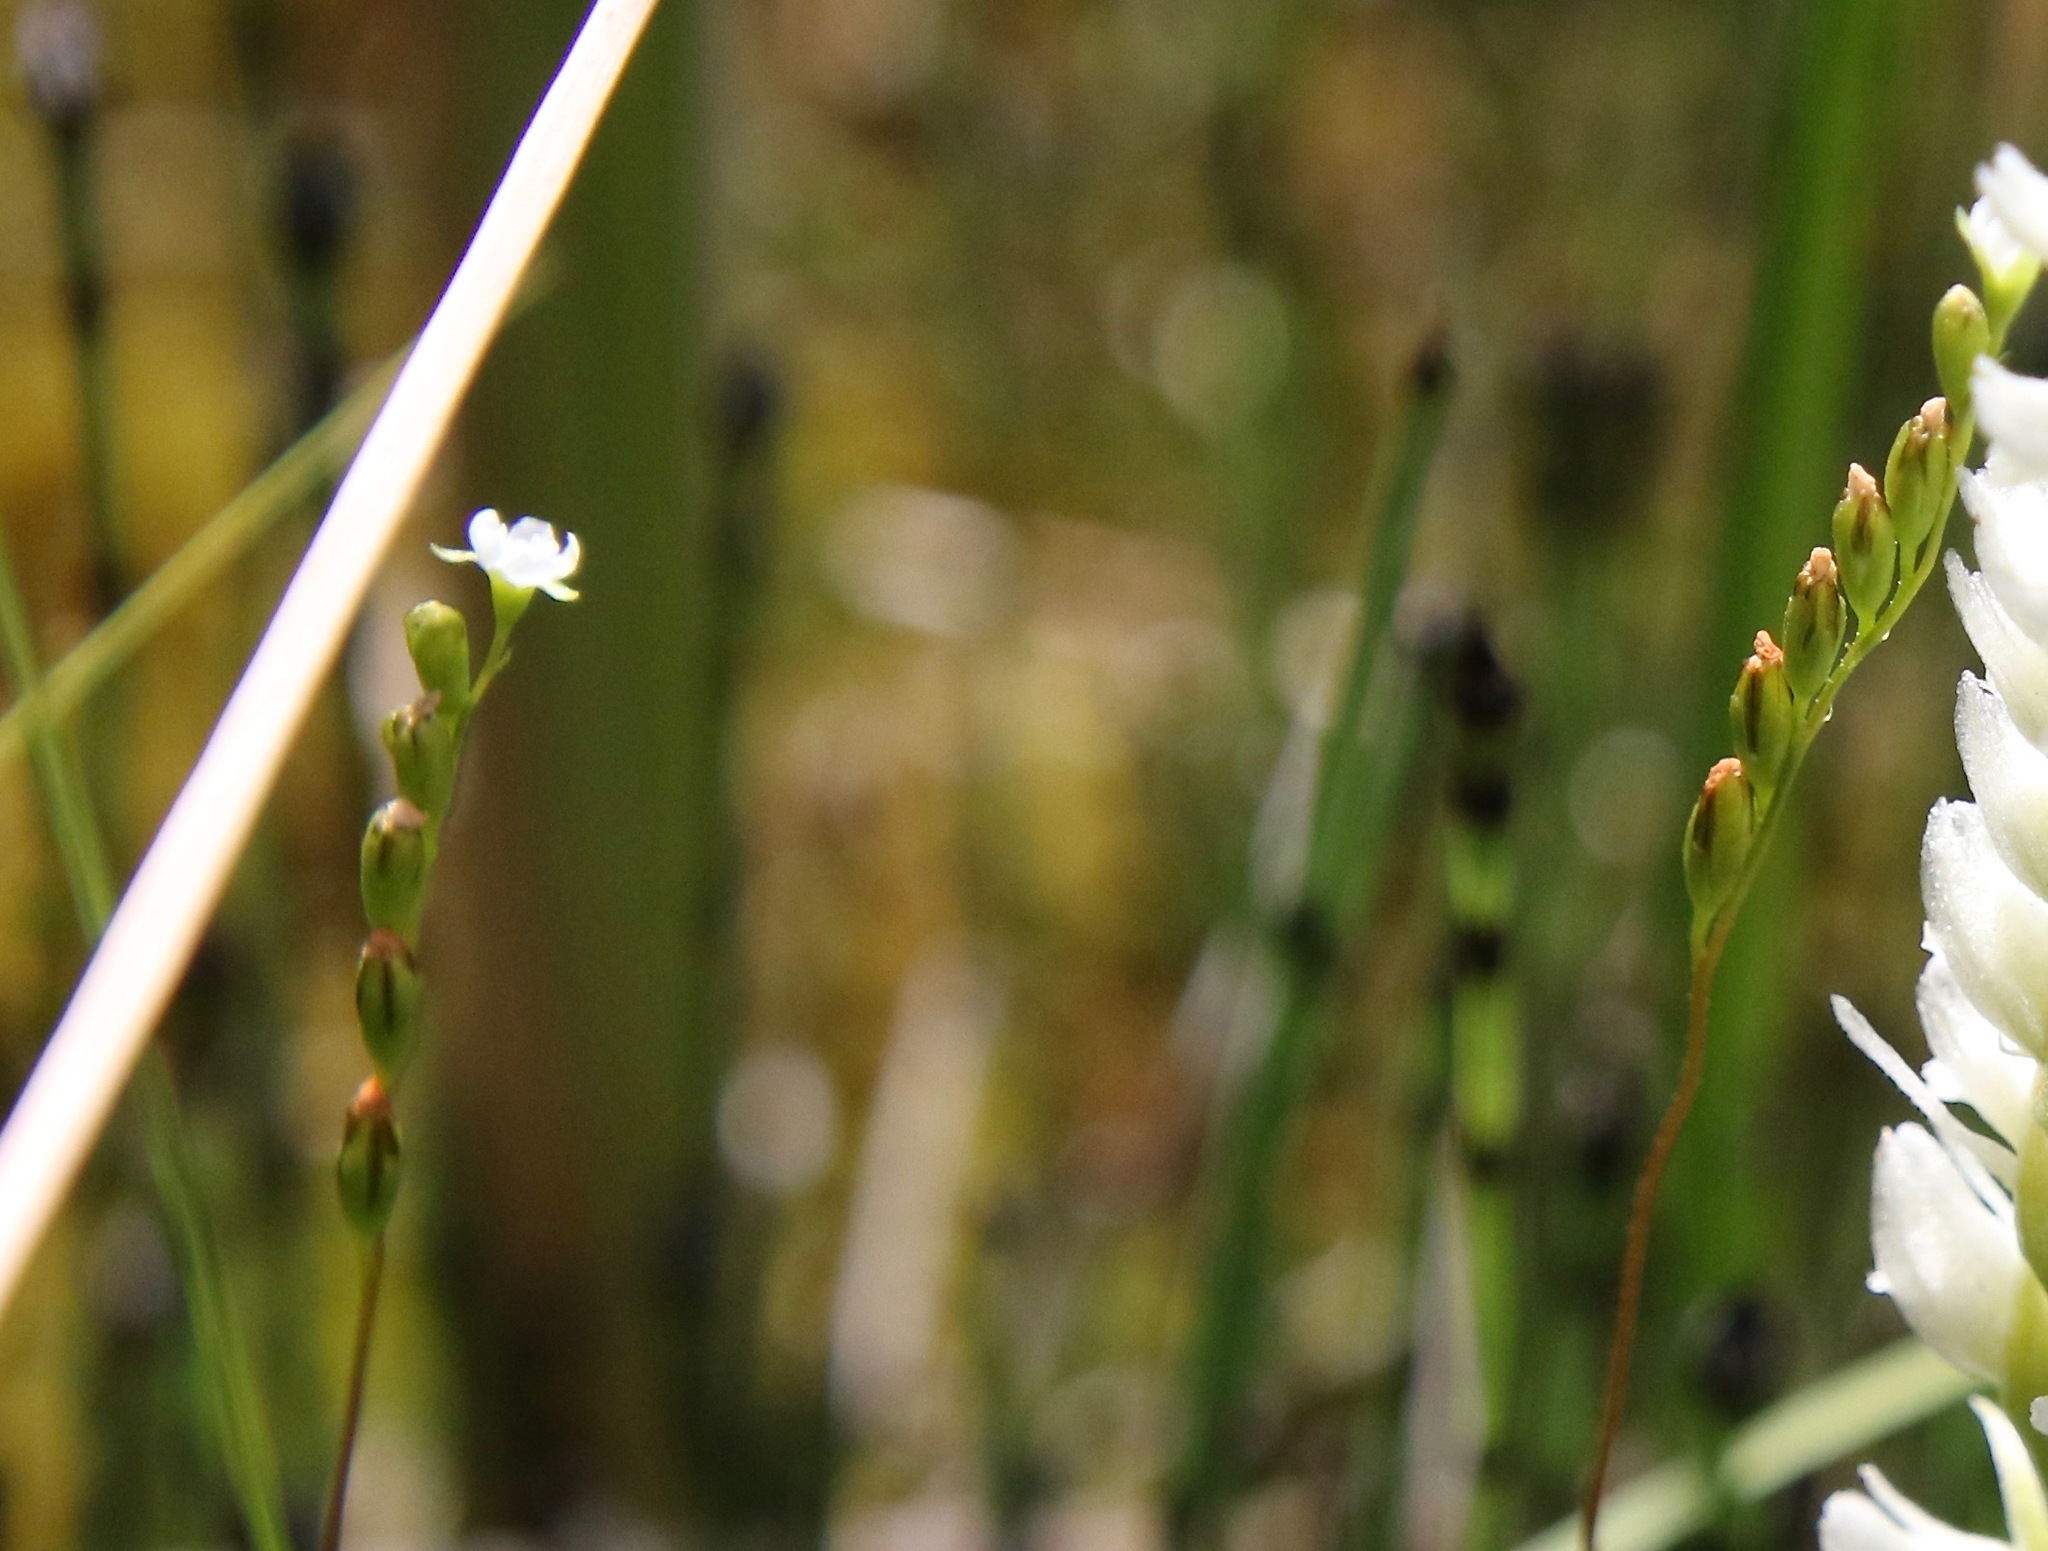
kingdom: Plantae
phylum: Tracheophyta
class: Magnoliopsida
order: Caryophyllales
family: Droseraceae
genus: Drosera
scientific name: Drosera rotundifolia
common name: Round-leaved sundew
